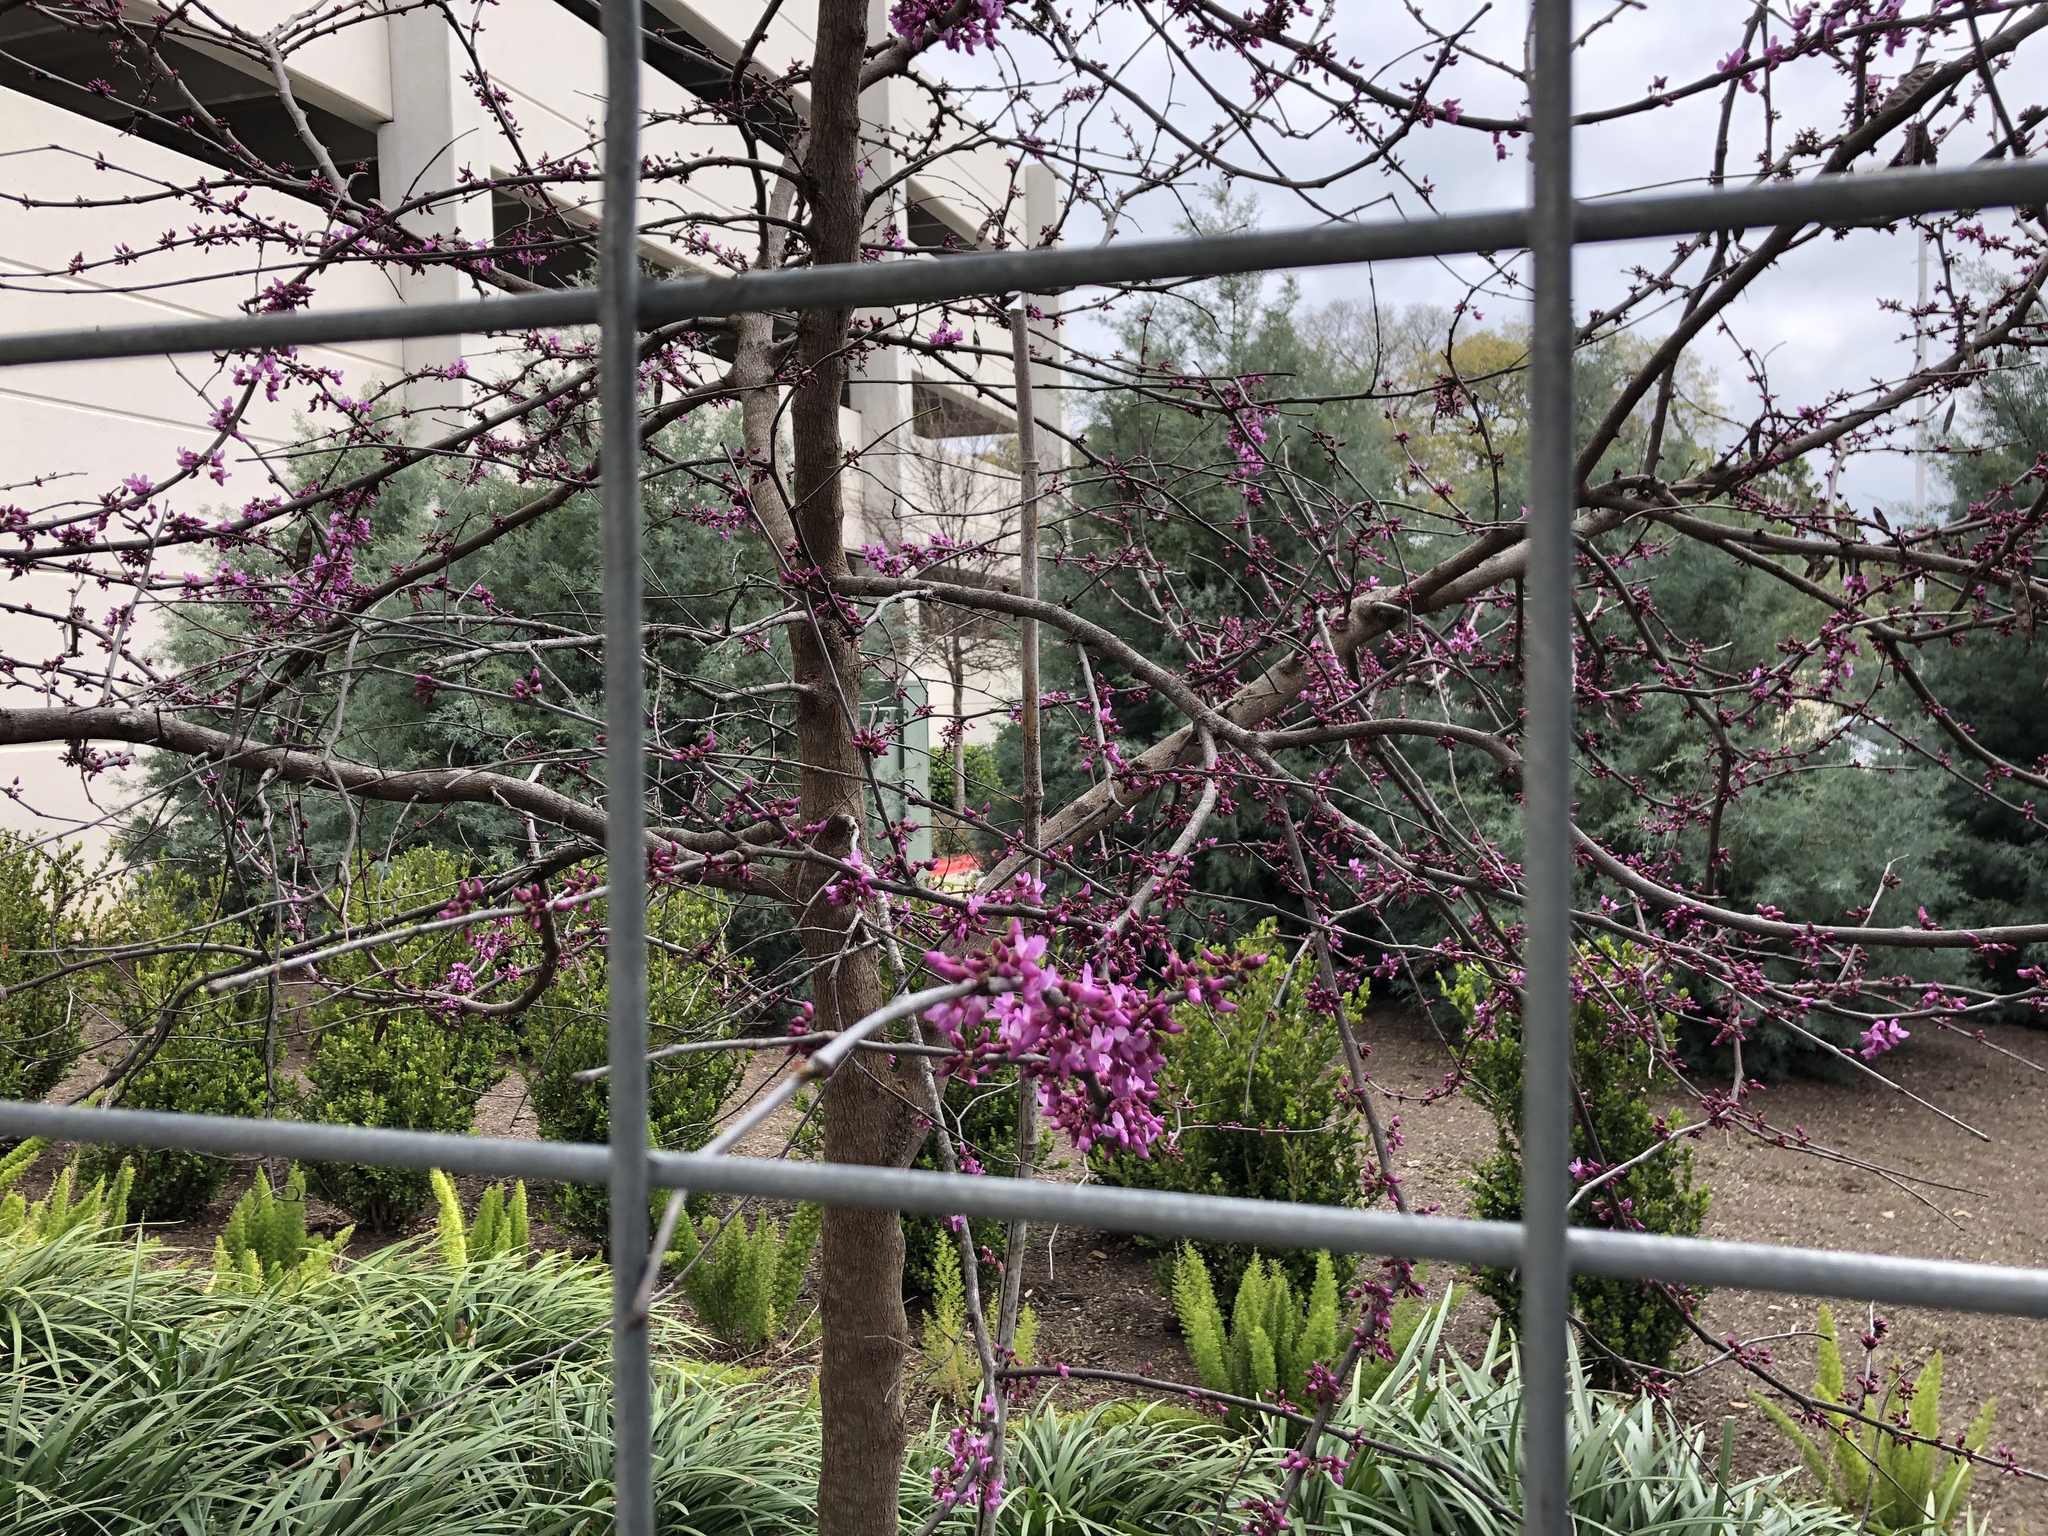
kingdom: Plantae
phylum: Tracheophyta
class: Magnoliopsida
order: Fabales
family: Fabaceae
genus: Cercis
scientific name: Cercis canadensis
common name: Eastern redbud
